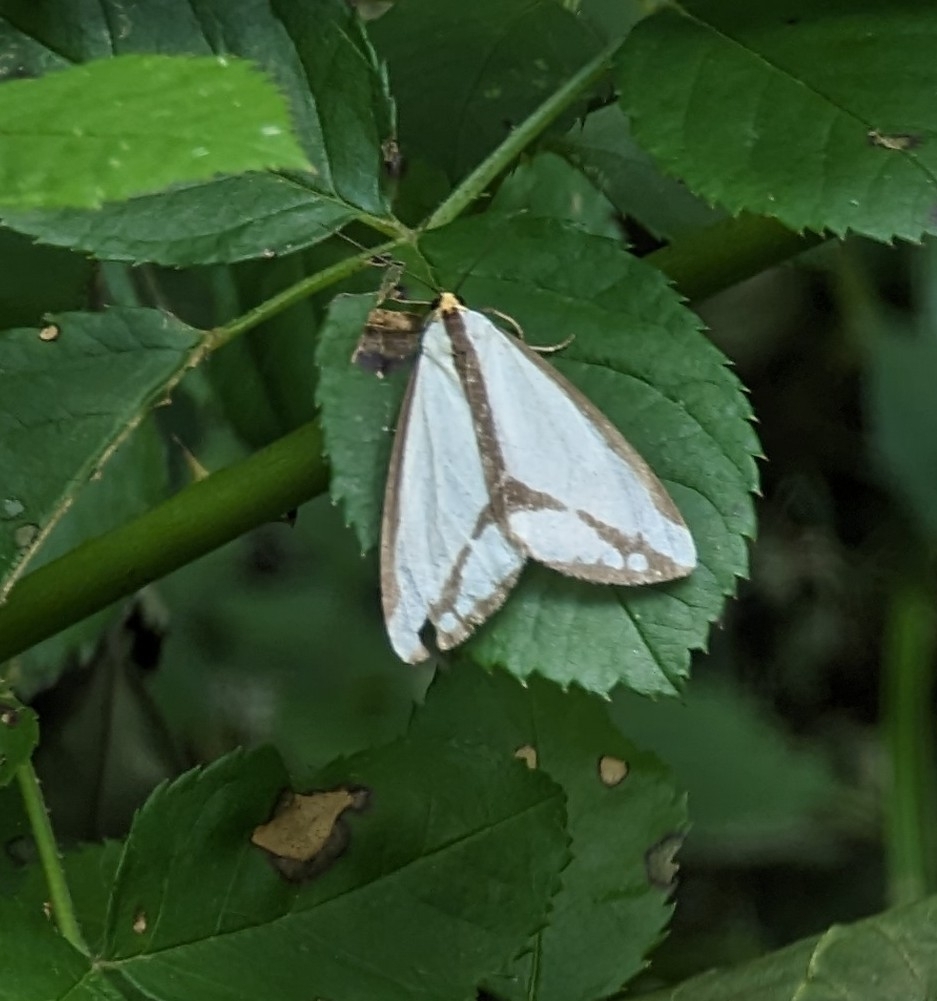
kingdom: Animalia
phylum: Arthropoda
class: Insecta
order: Lepidoptera
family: Erebidae
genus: Haploa
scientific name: Haploa lecontei
